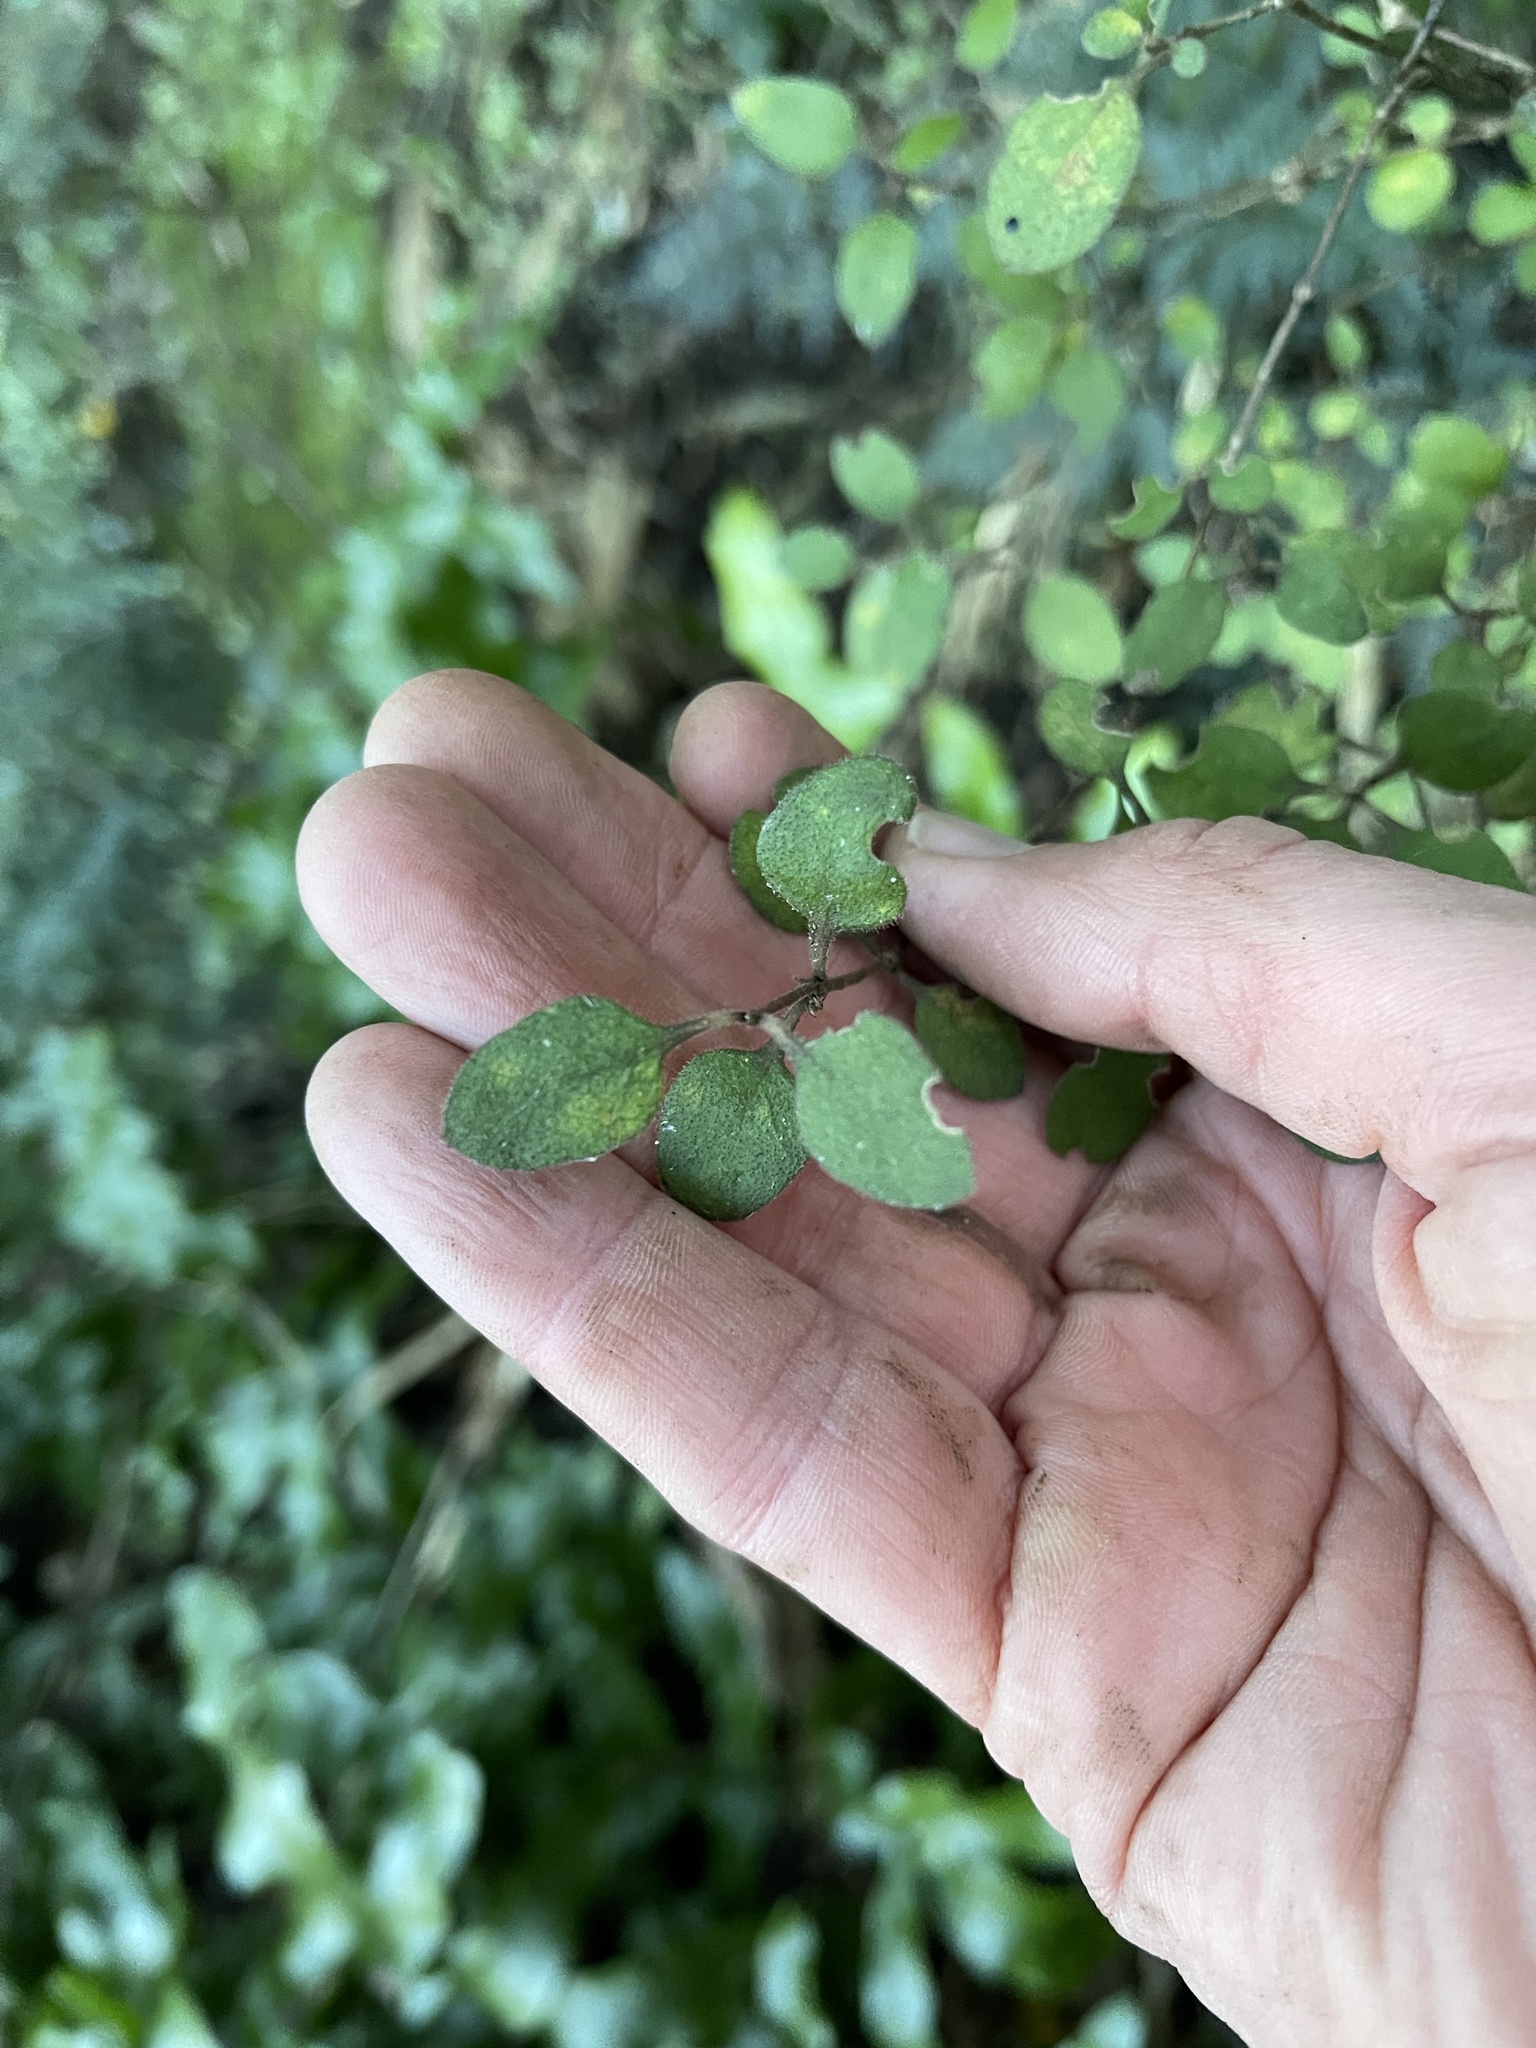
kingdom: Plantae
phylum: Tracheophyta
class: Magnoliopsida
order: Gentianales
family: Rubiaceae
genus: Coprosma
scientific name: Coprosma rubra
